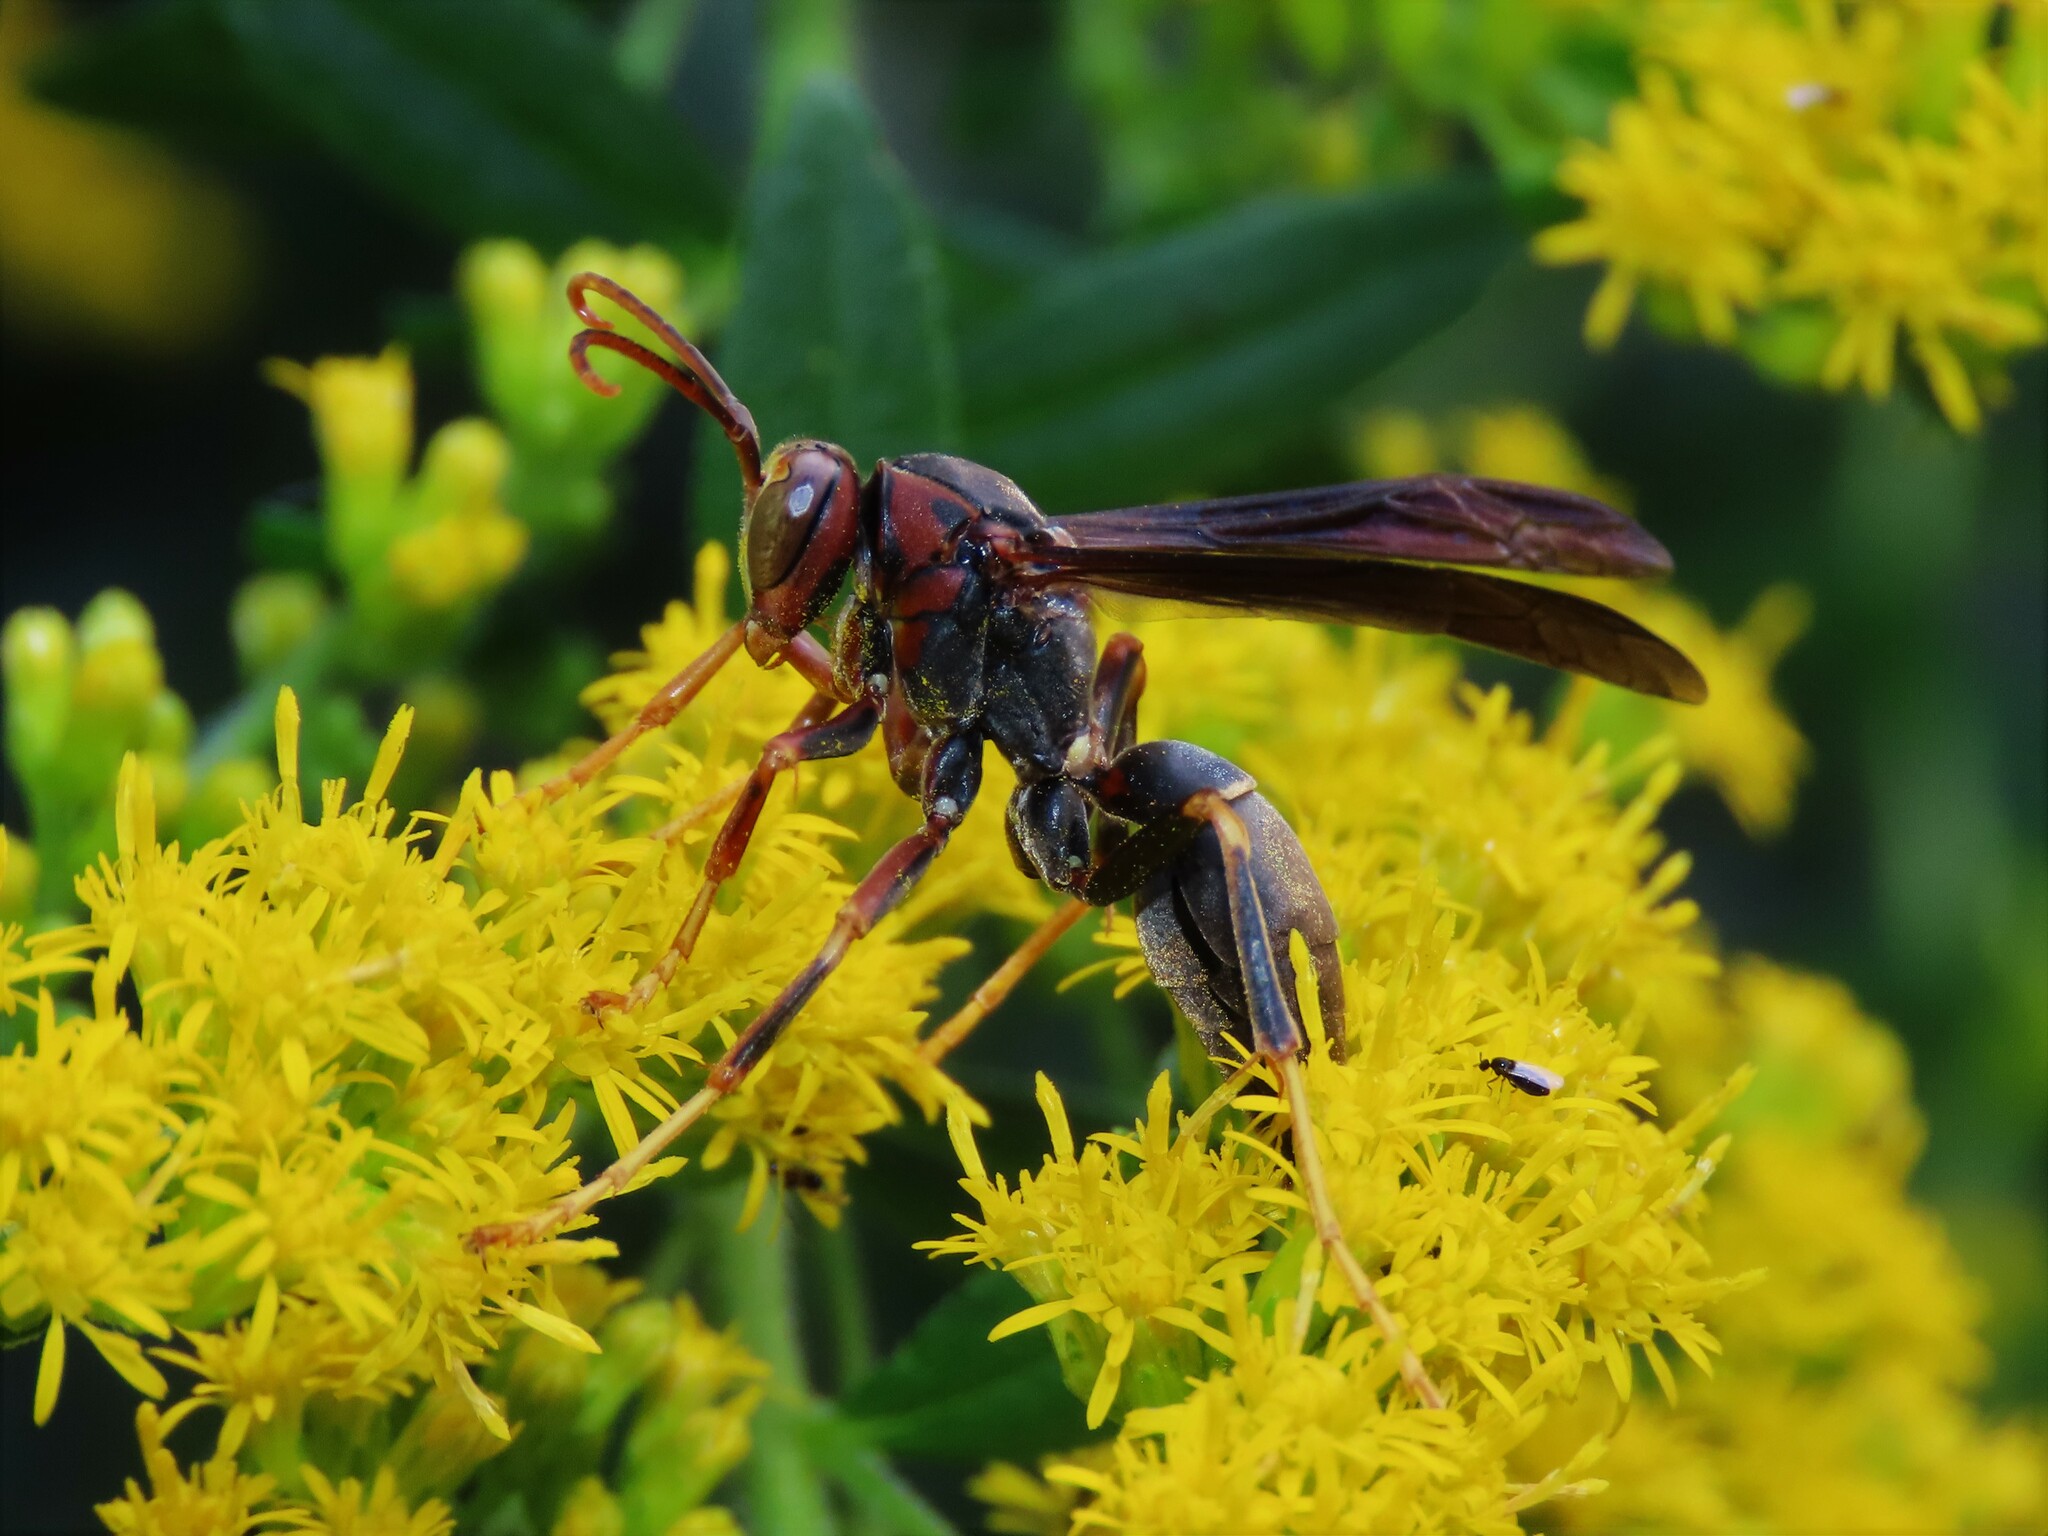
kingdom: Animalia
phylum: Arthropoda
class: Insecta
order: Hymenoptera
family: Eumenidae
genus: Polistes
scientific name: Polistes metricus
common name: Metric paper wasp
